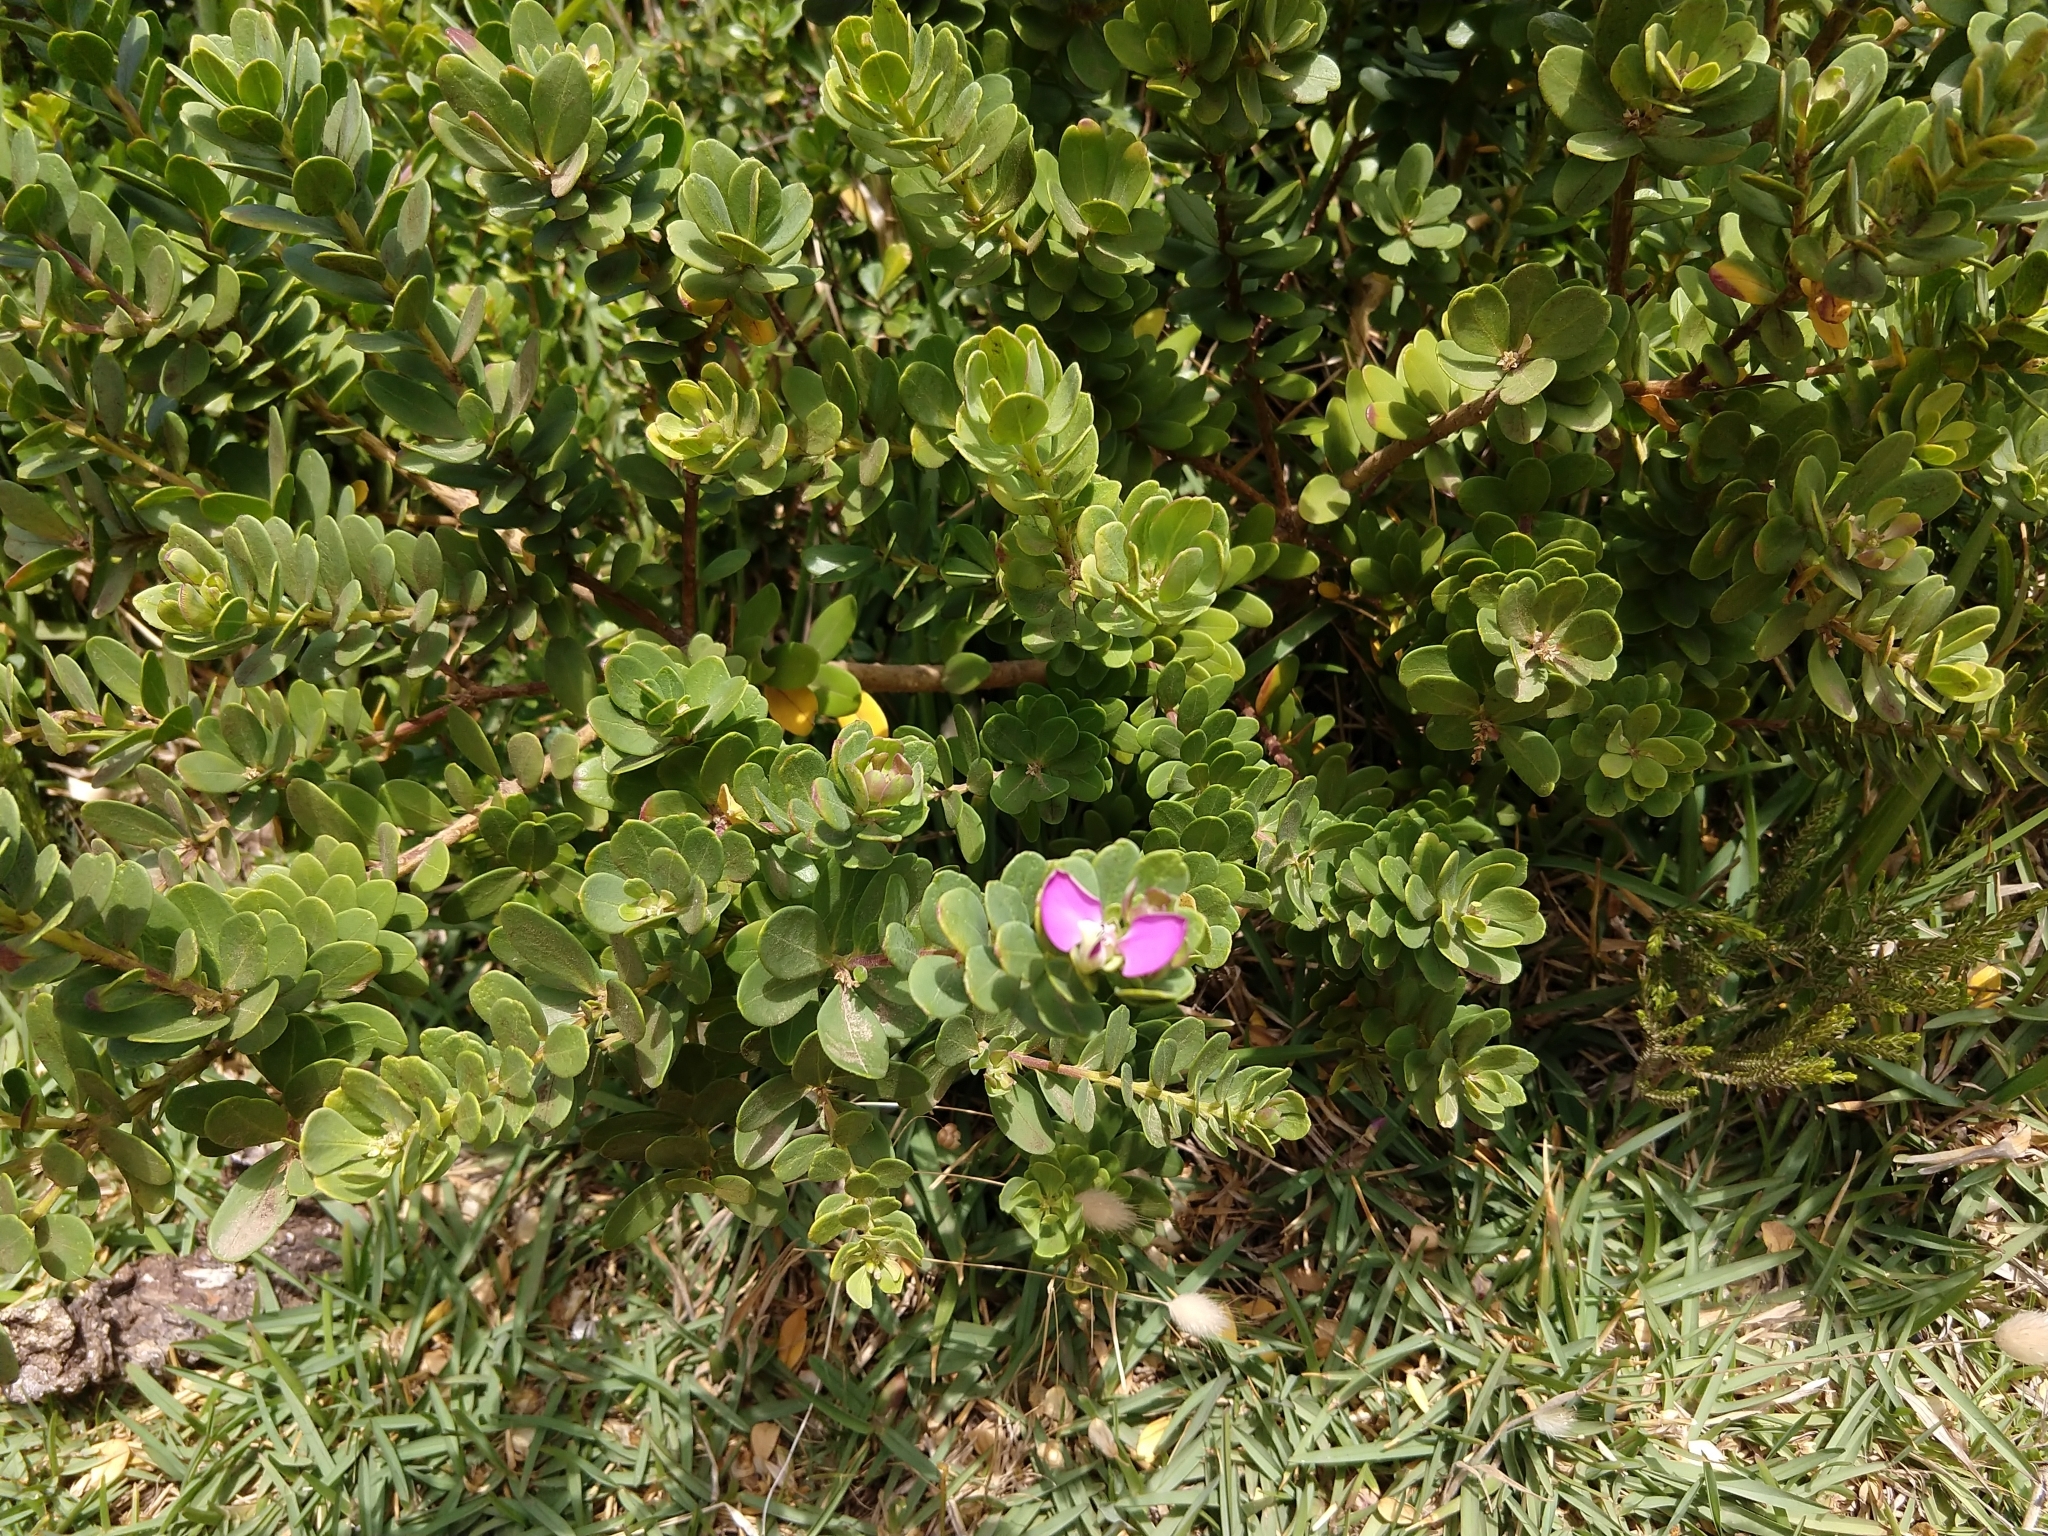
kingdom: Plantae
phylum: Tracheophyta
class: Magnoliopsida
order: Fabales
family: Polygalaceae
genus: Polygala
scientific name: Polygala myrtifolia
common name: Myrtle-leaf milkwort
